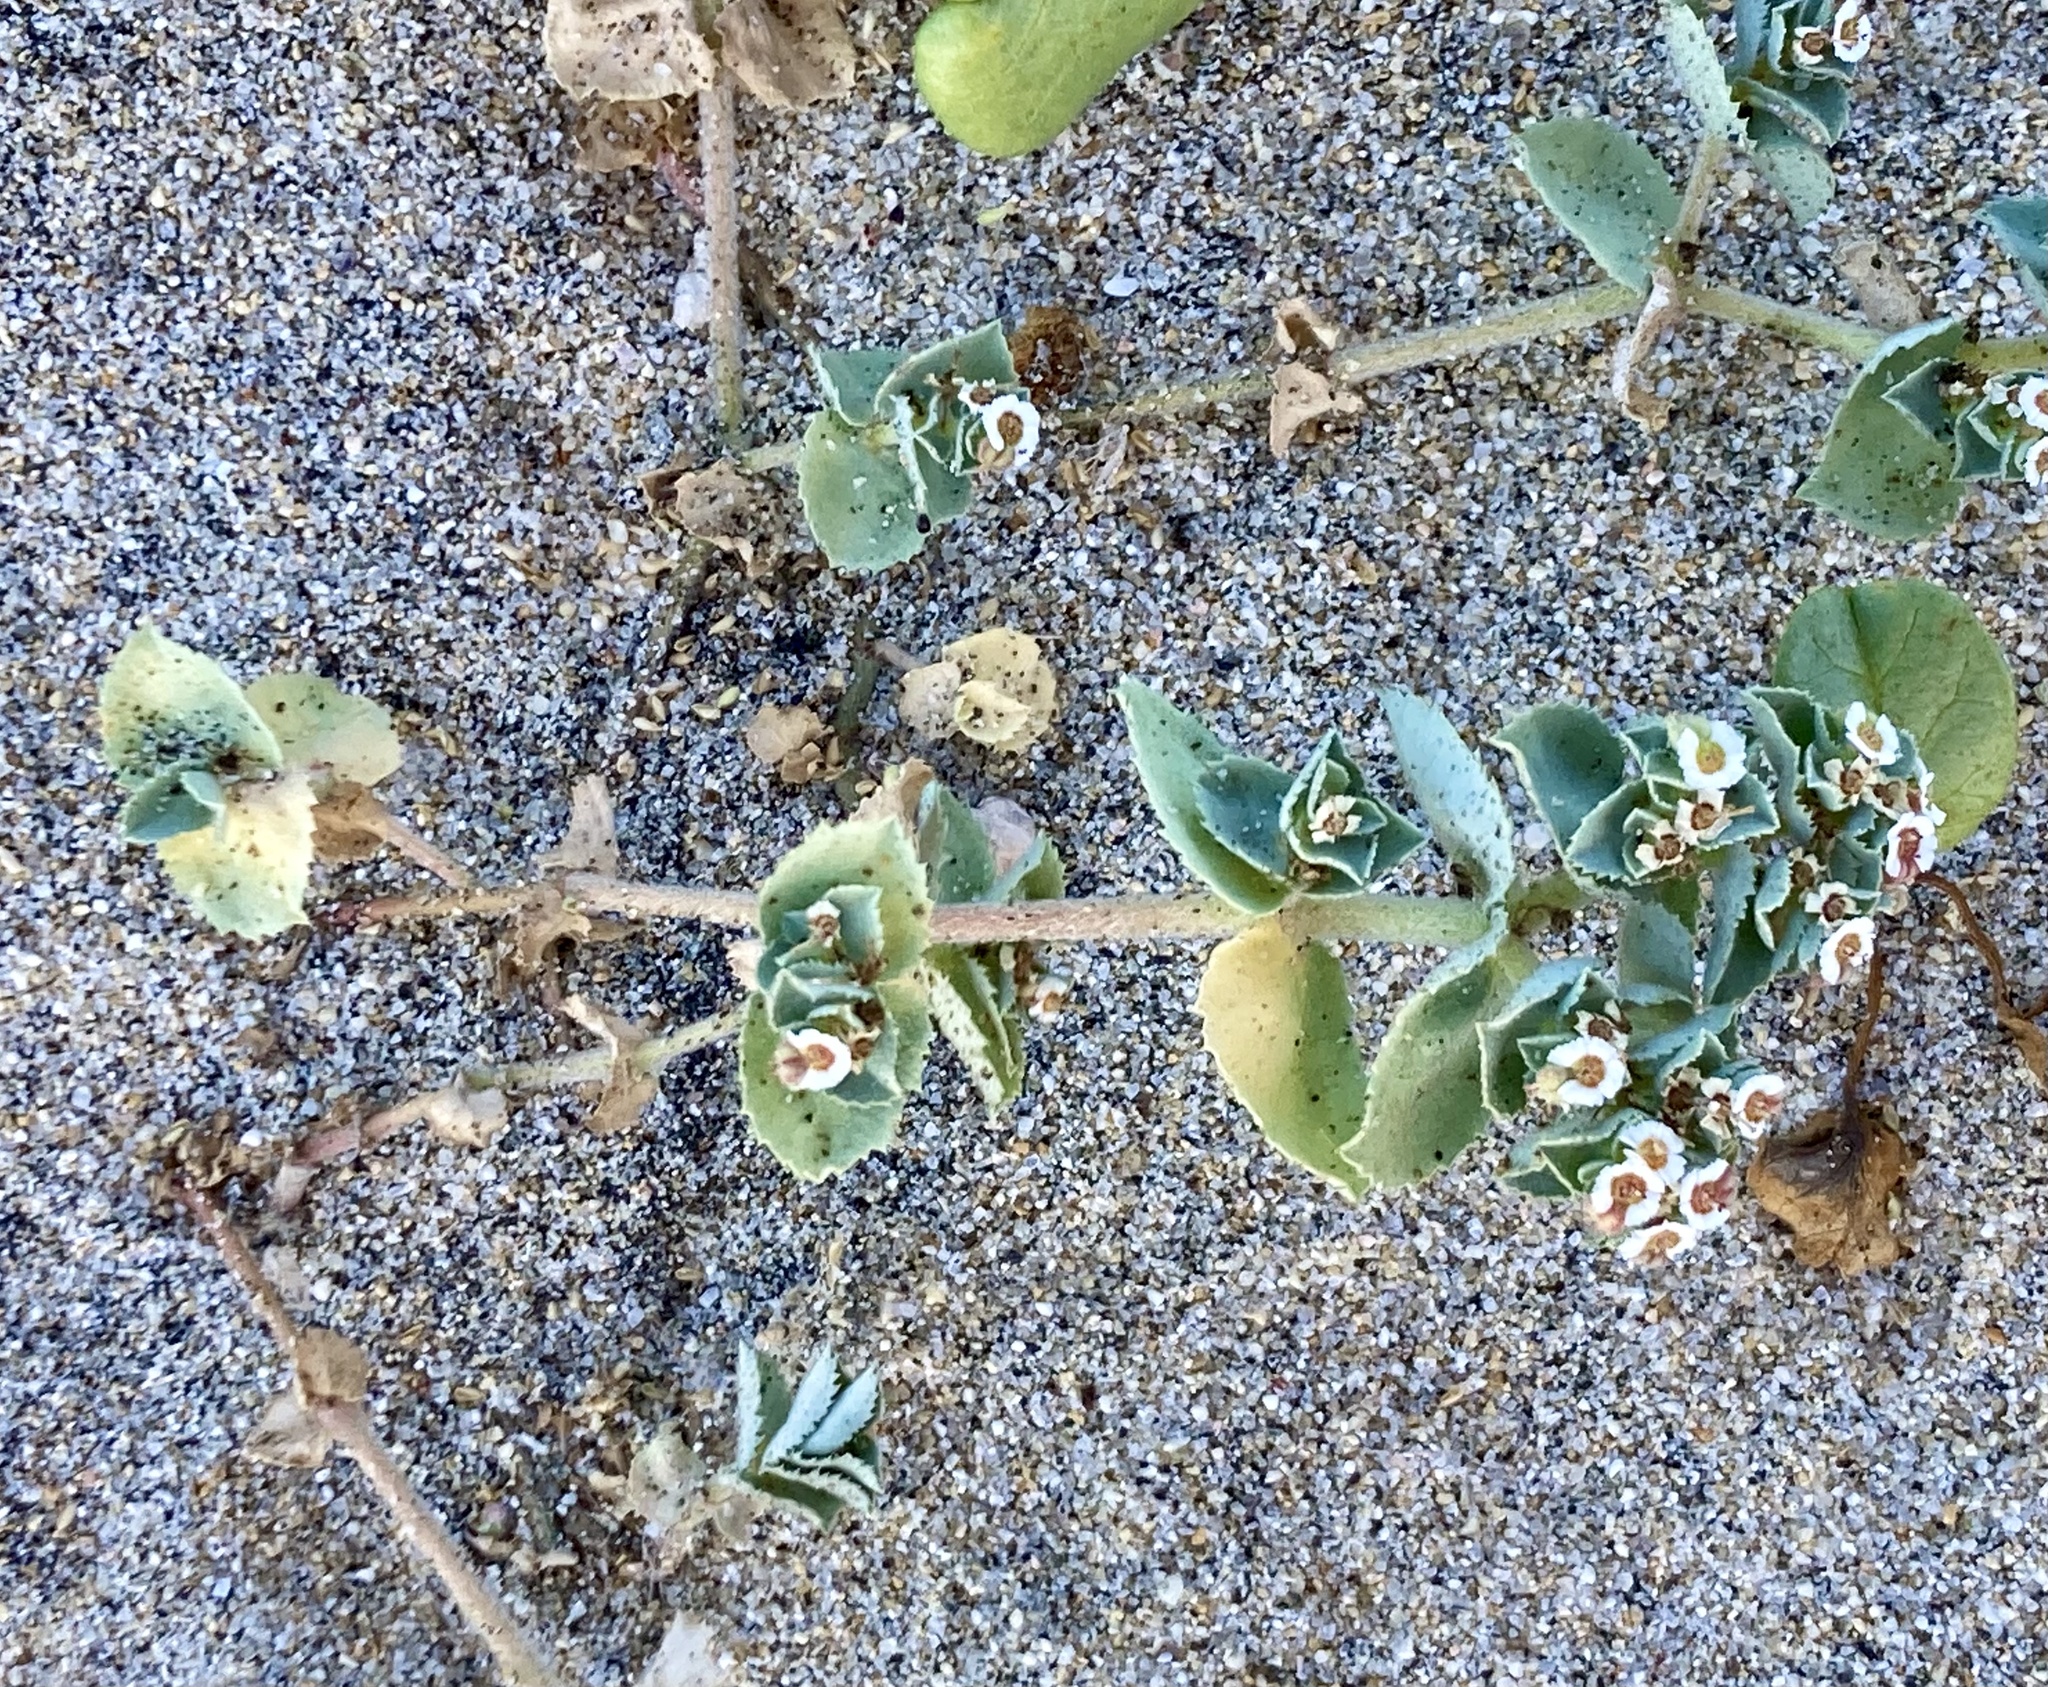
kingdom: Plantae
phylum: Tracheophyta
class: Magnoliopsida
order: Malpighiales
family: Euphorbiaceae
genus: Euphorbia
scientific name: Euphorbia leucophylla
